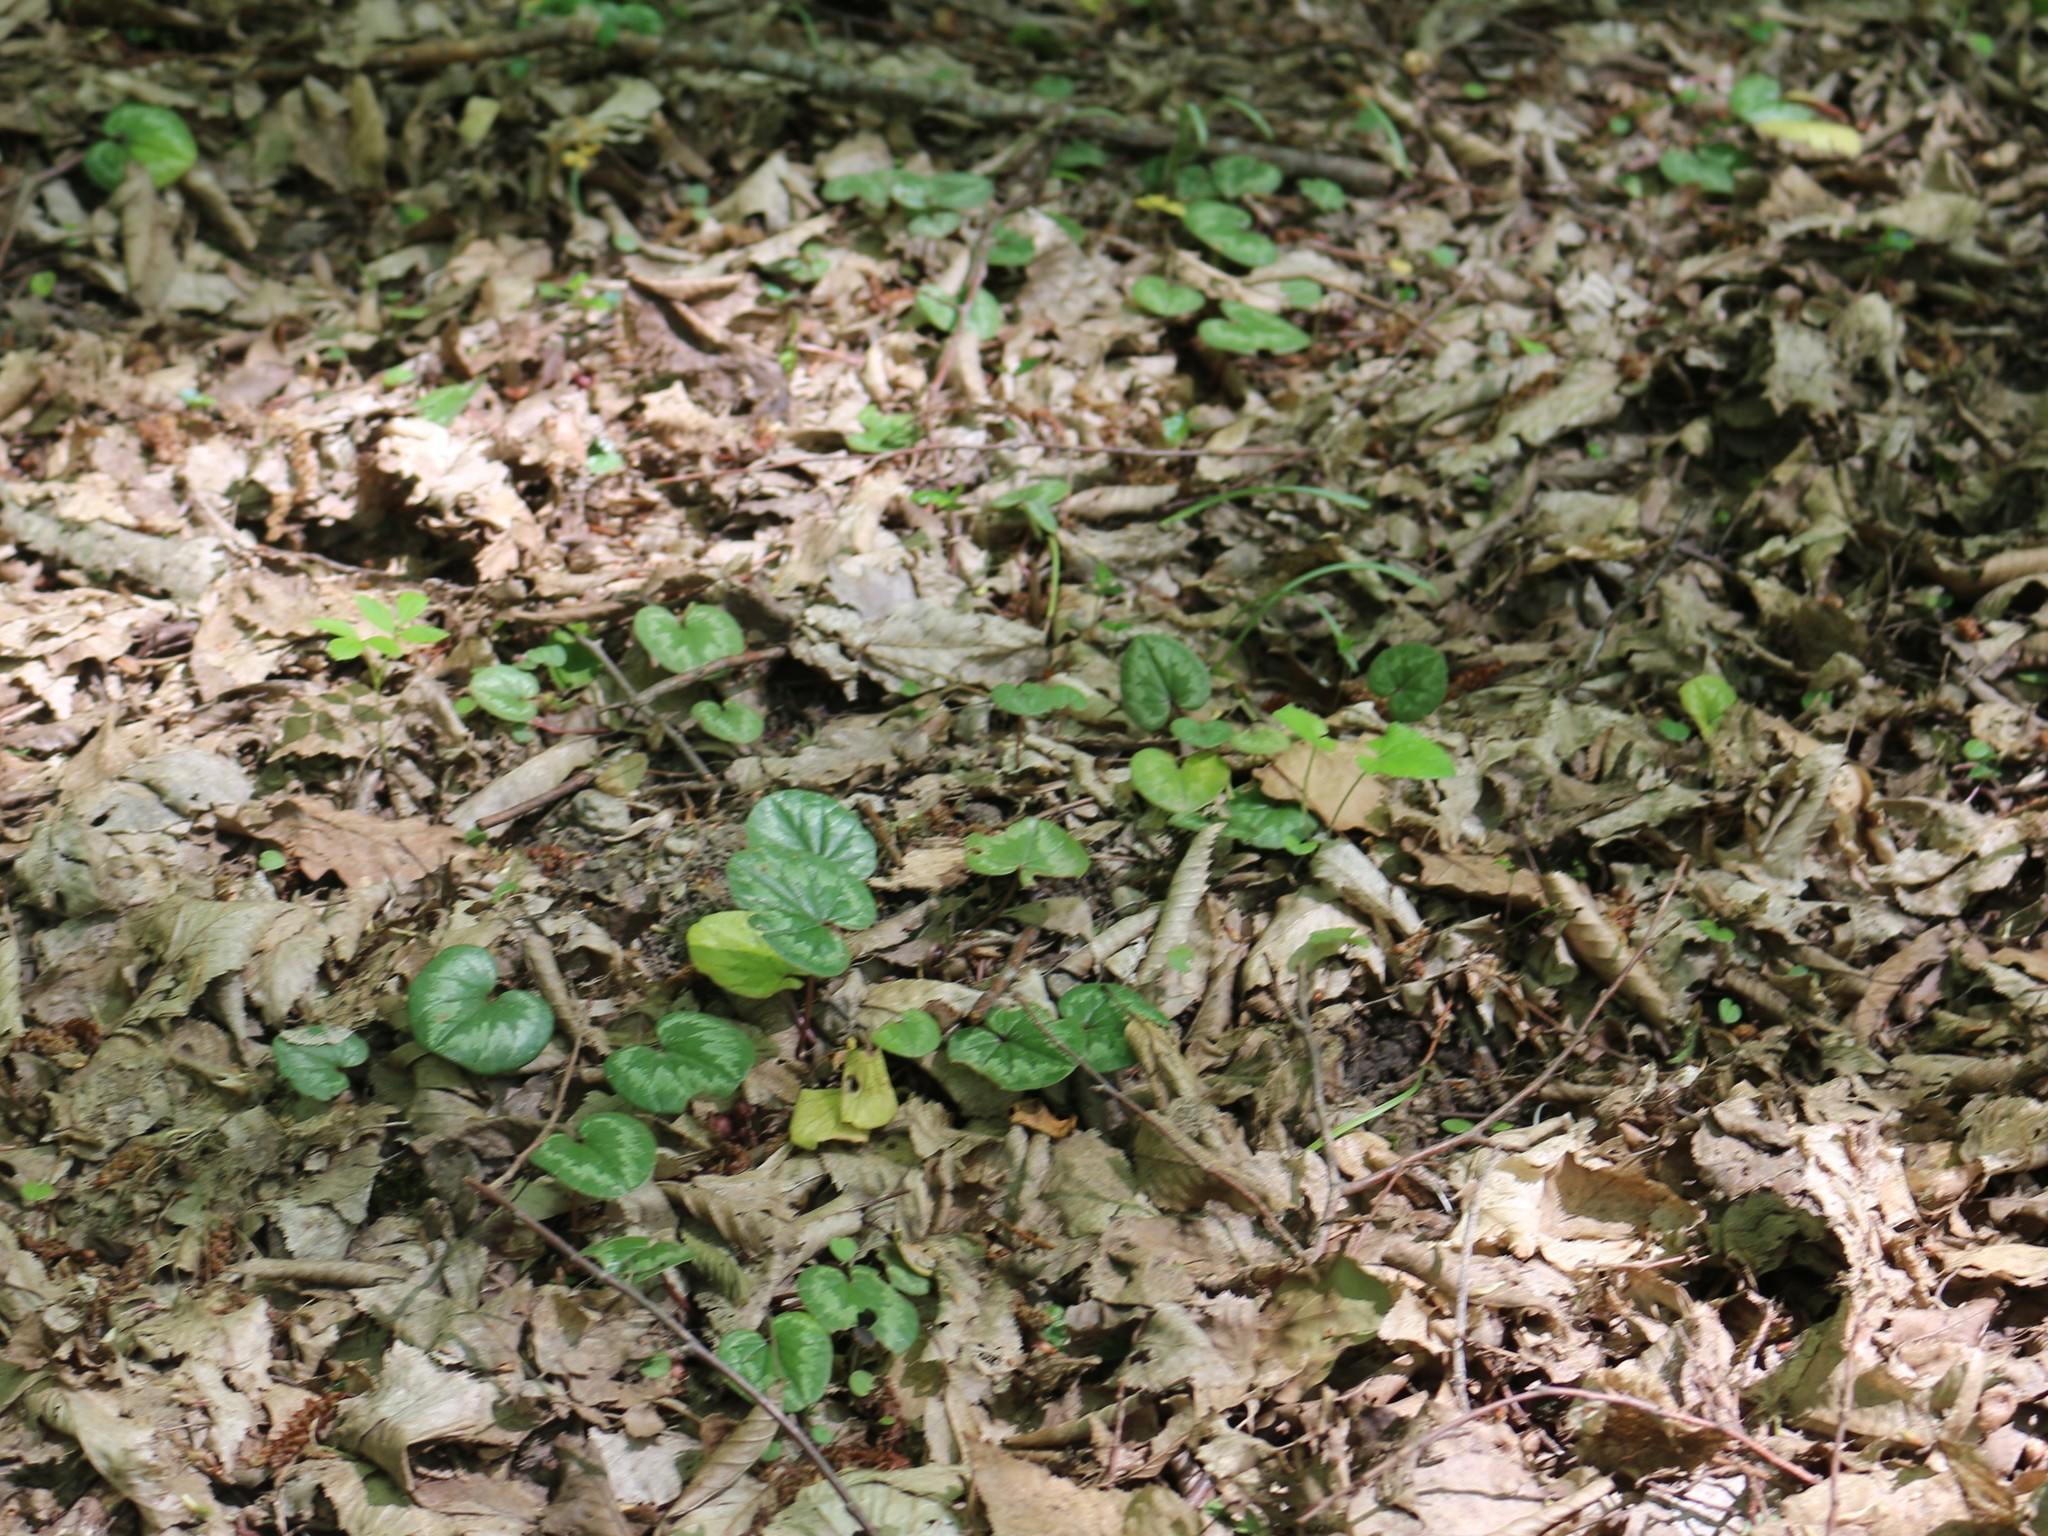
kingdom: Plantae
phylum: Tracheophyta
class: Magnoliopsida
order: Ericales
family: Primulaceae
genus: Cyclamen
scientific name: Cyclamen coum
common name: Eastern sowbread
